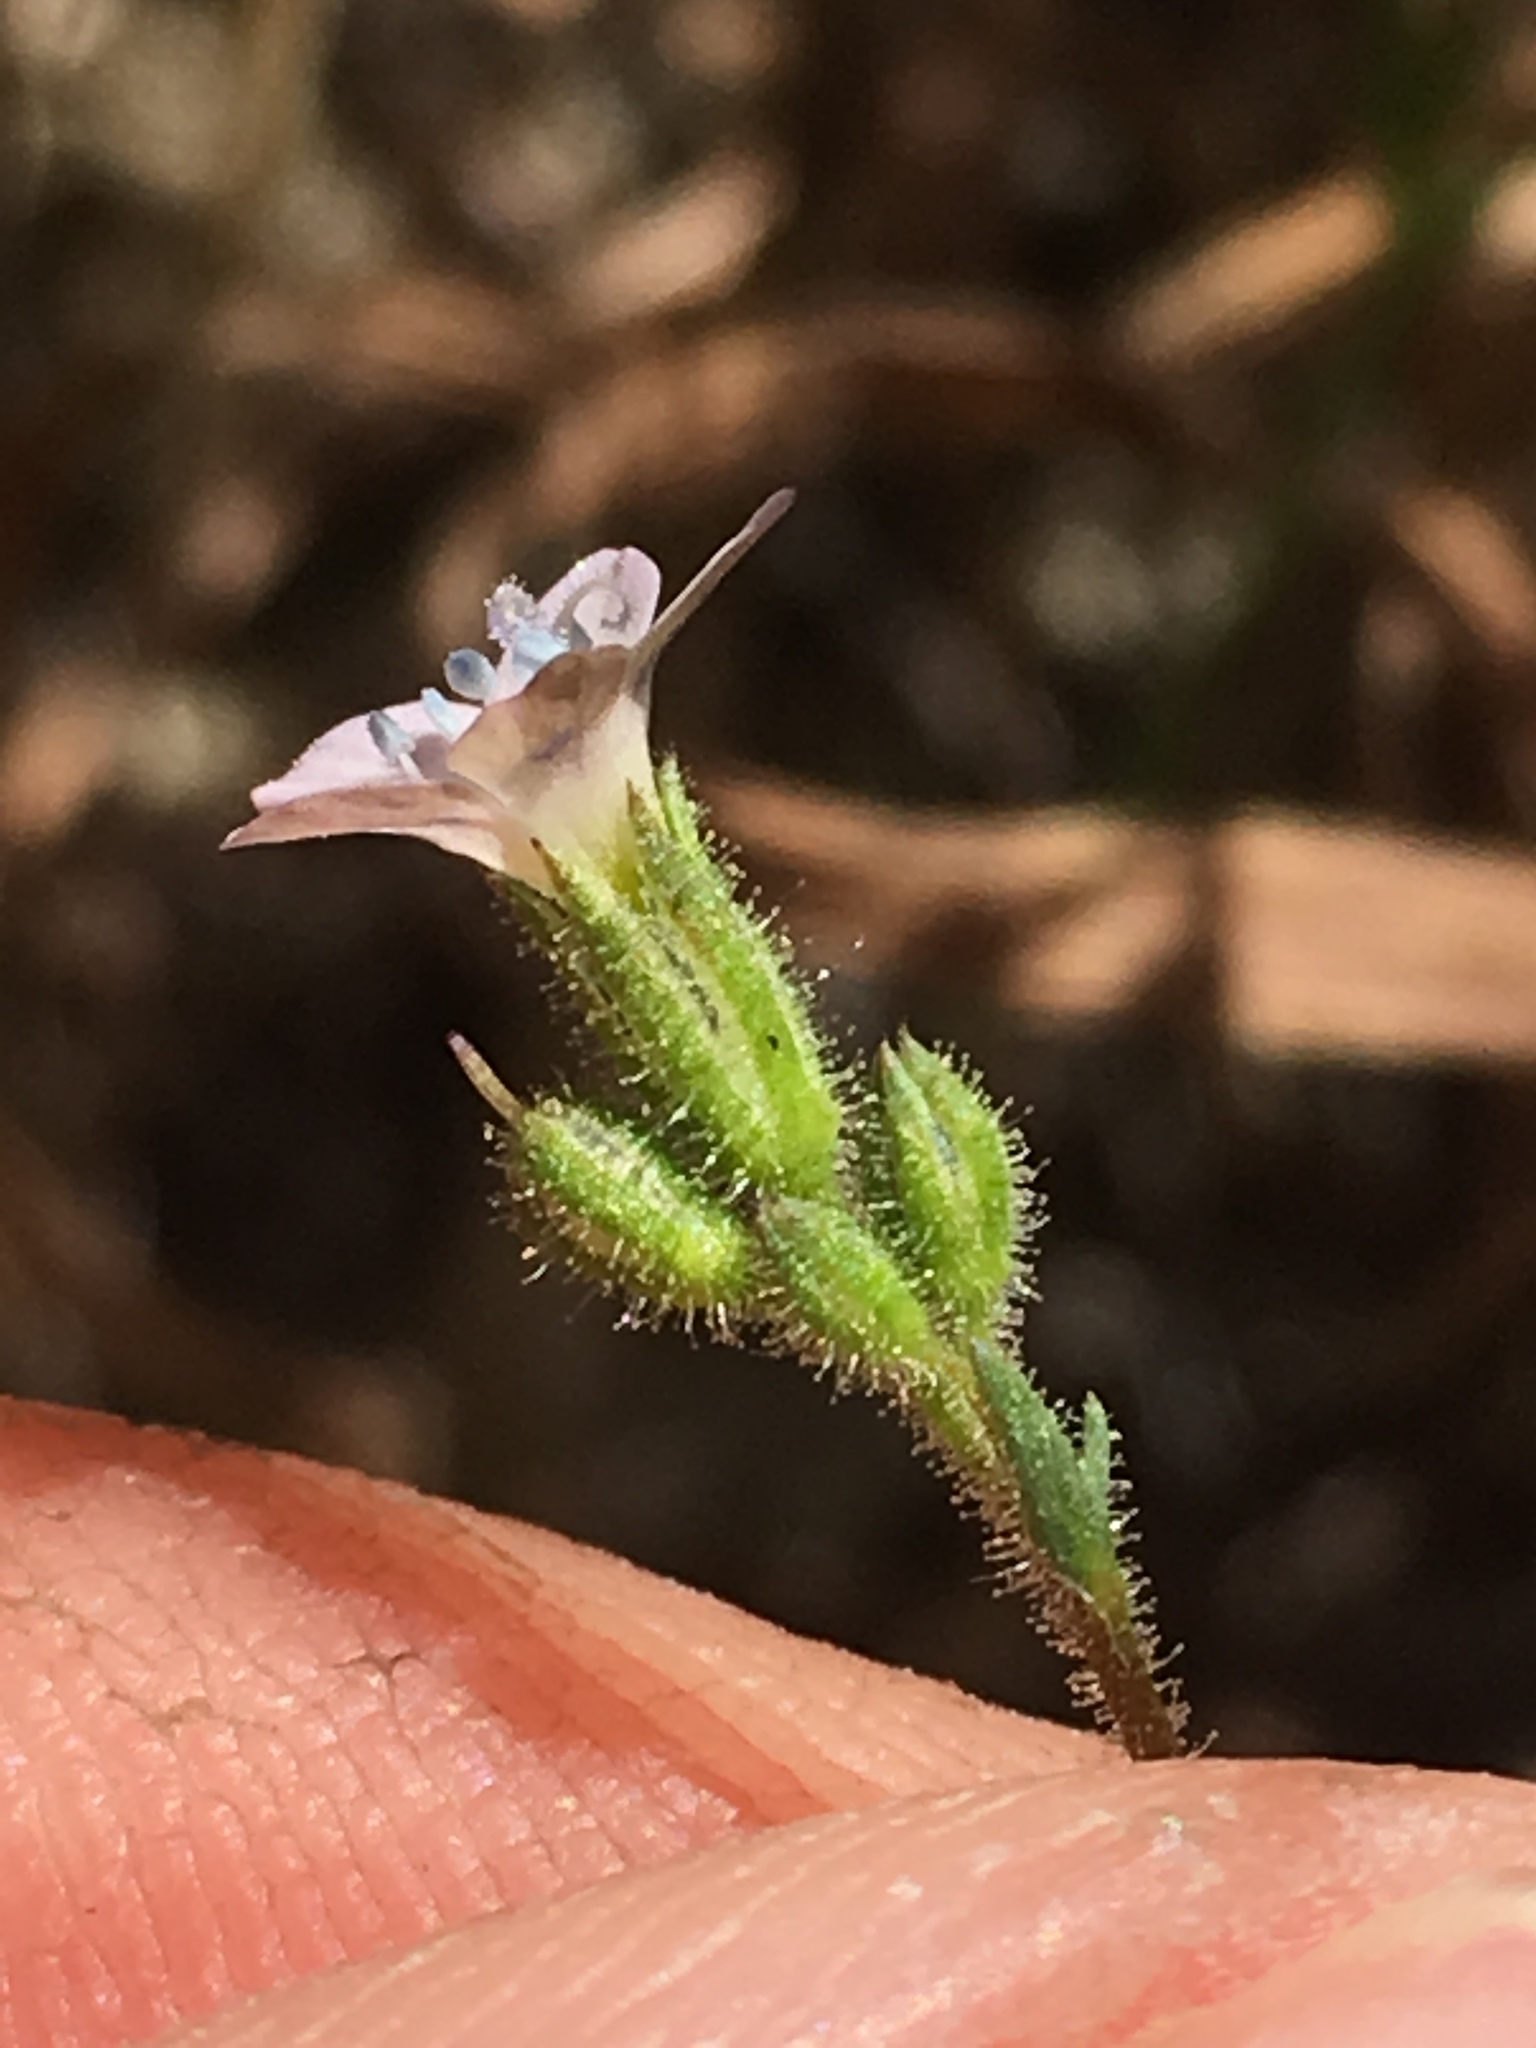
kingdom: Plantae
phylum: Tracheophyta
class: Magnoliopsida
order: Ericales
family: Polemoniaceae
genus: Gilia
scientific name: Gilia angelensis
